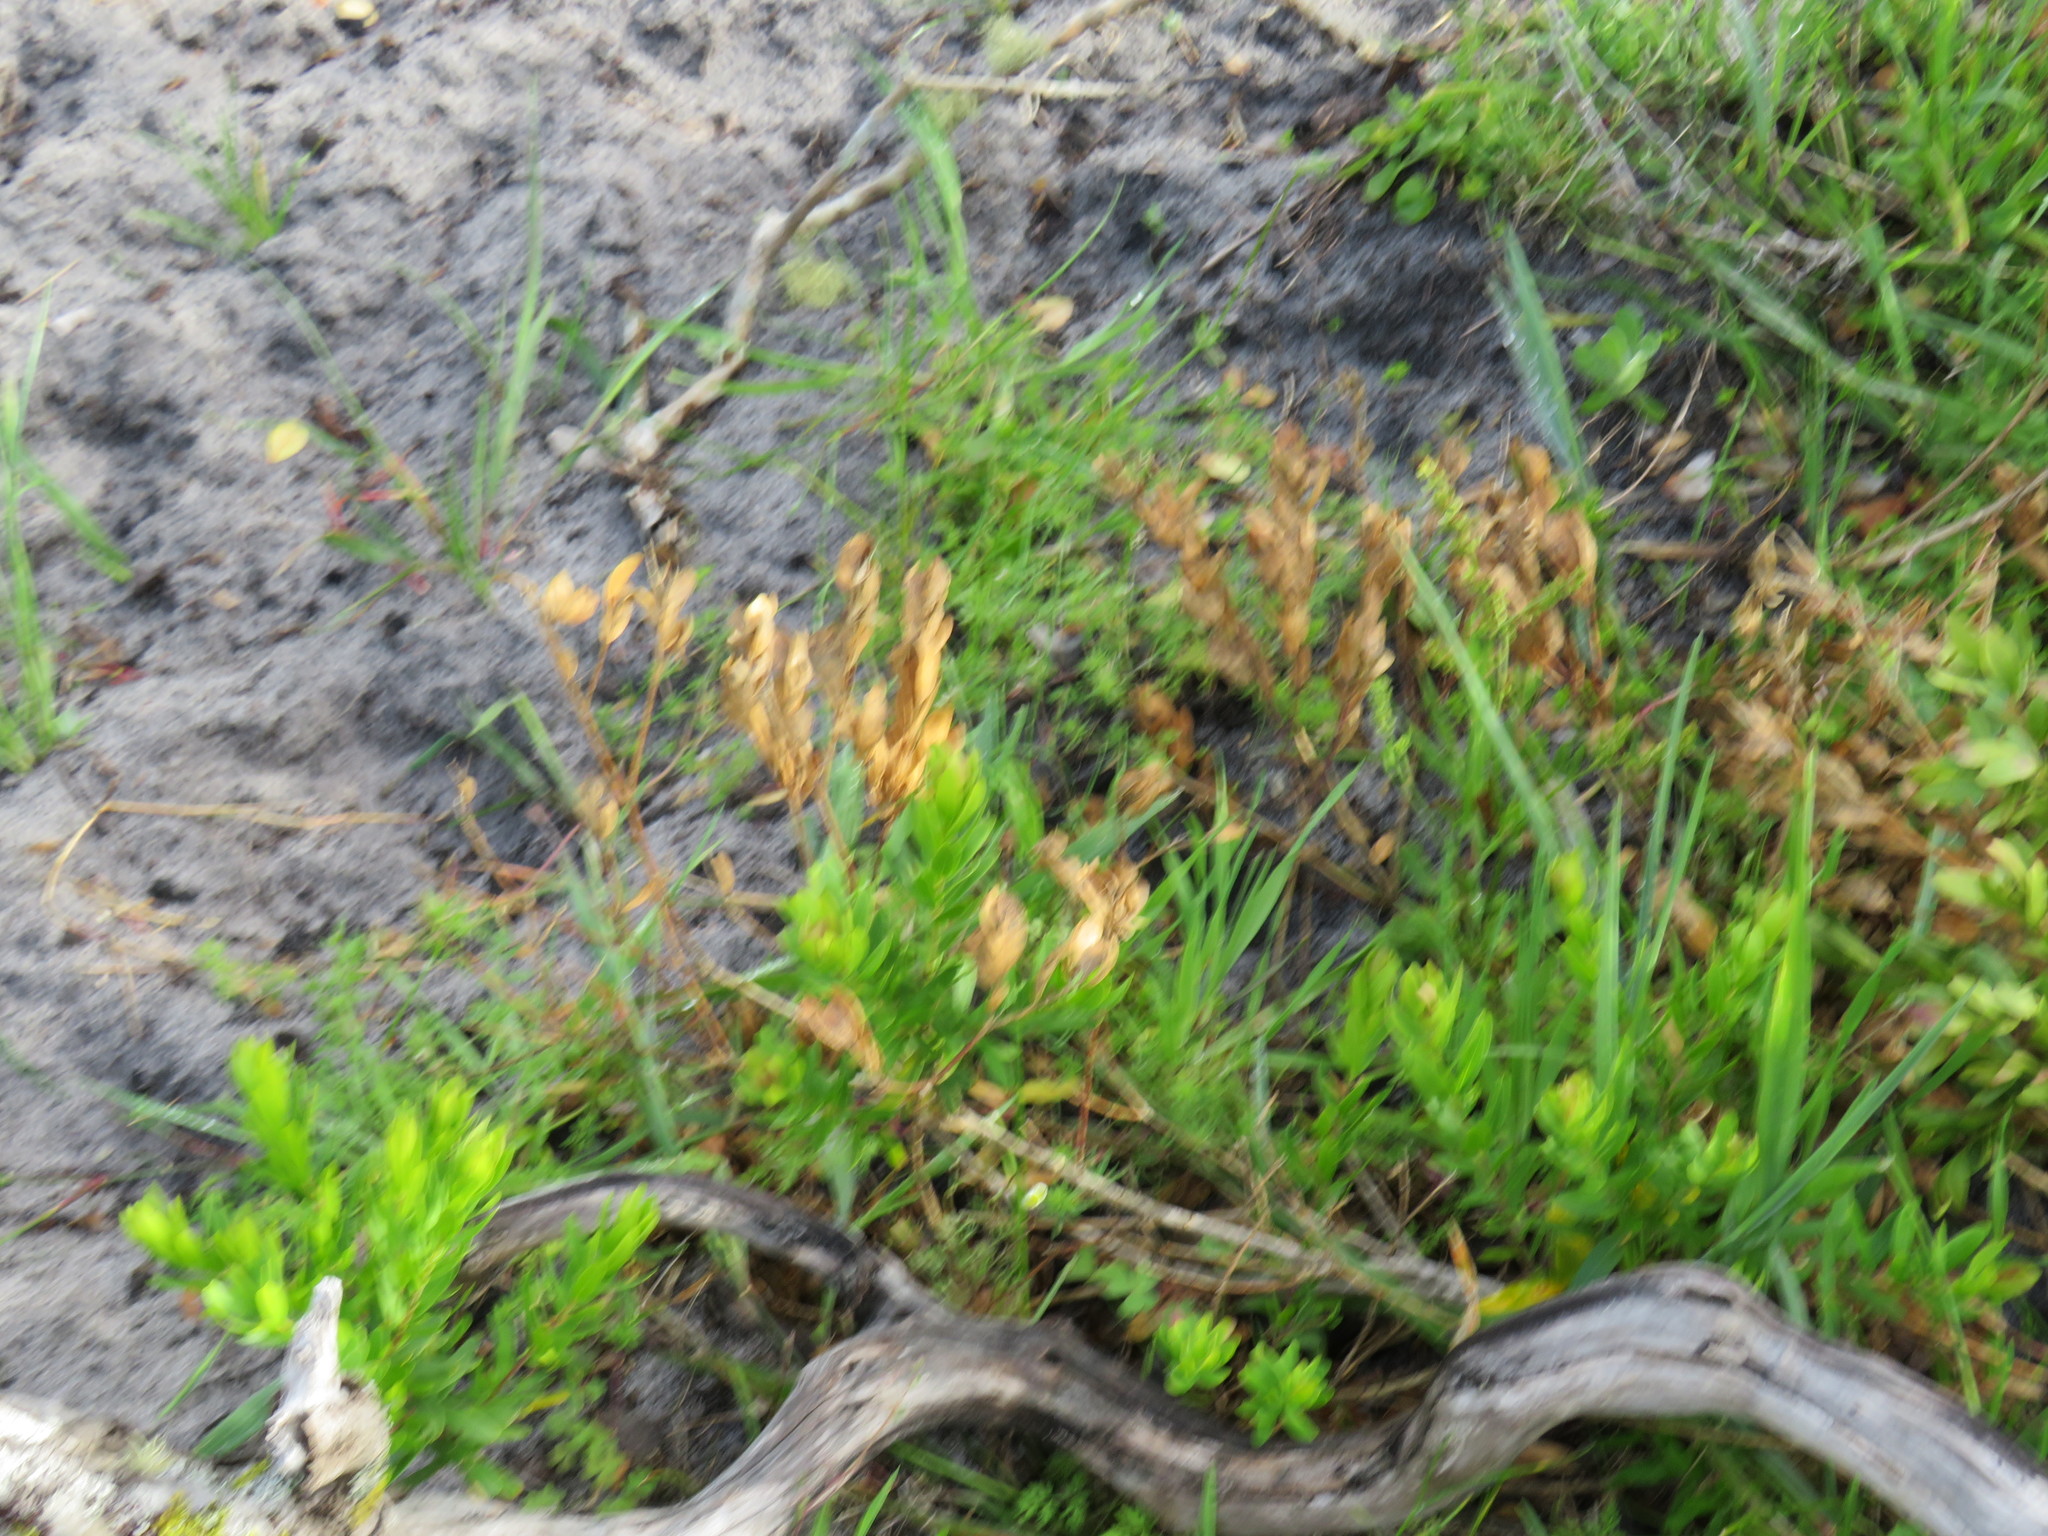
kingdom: Plantae
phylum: Tracheophyta
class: Magnoliopsida
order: Fabales
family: Polygalaceae
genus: Polygala
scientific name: Polygala myrtifolia
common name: Myrtle-leaf milkwort
